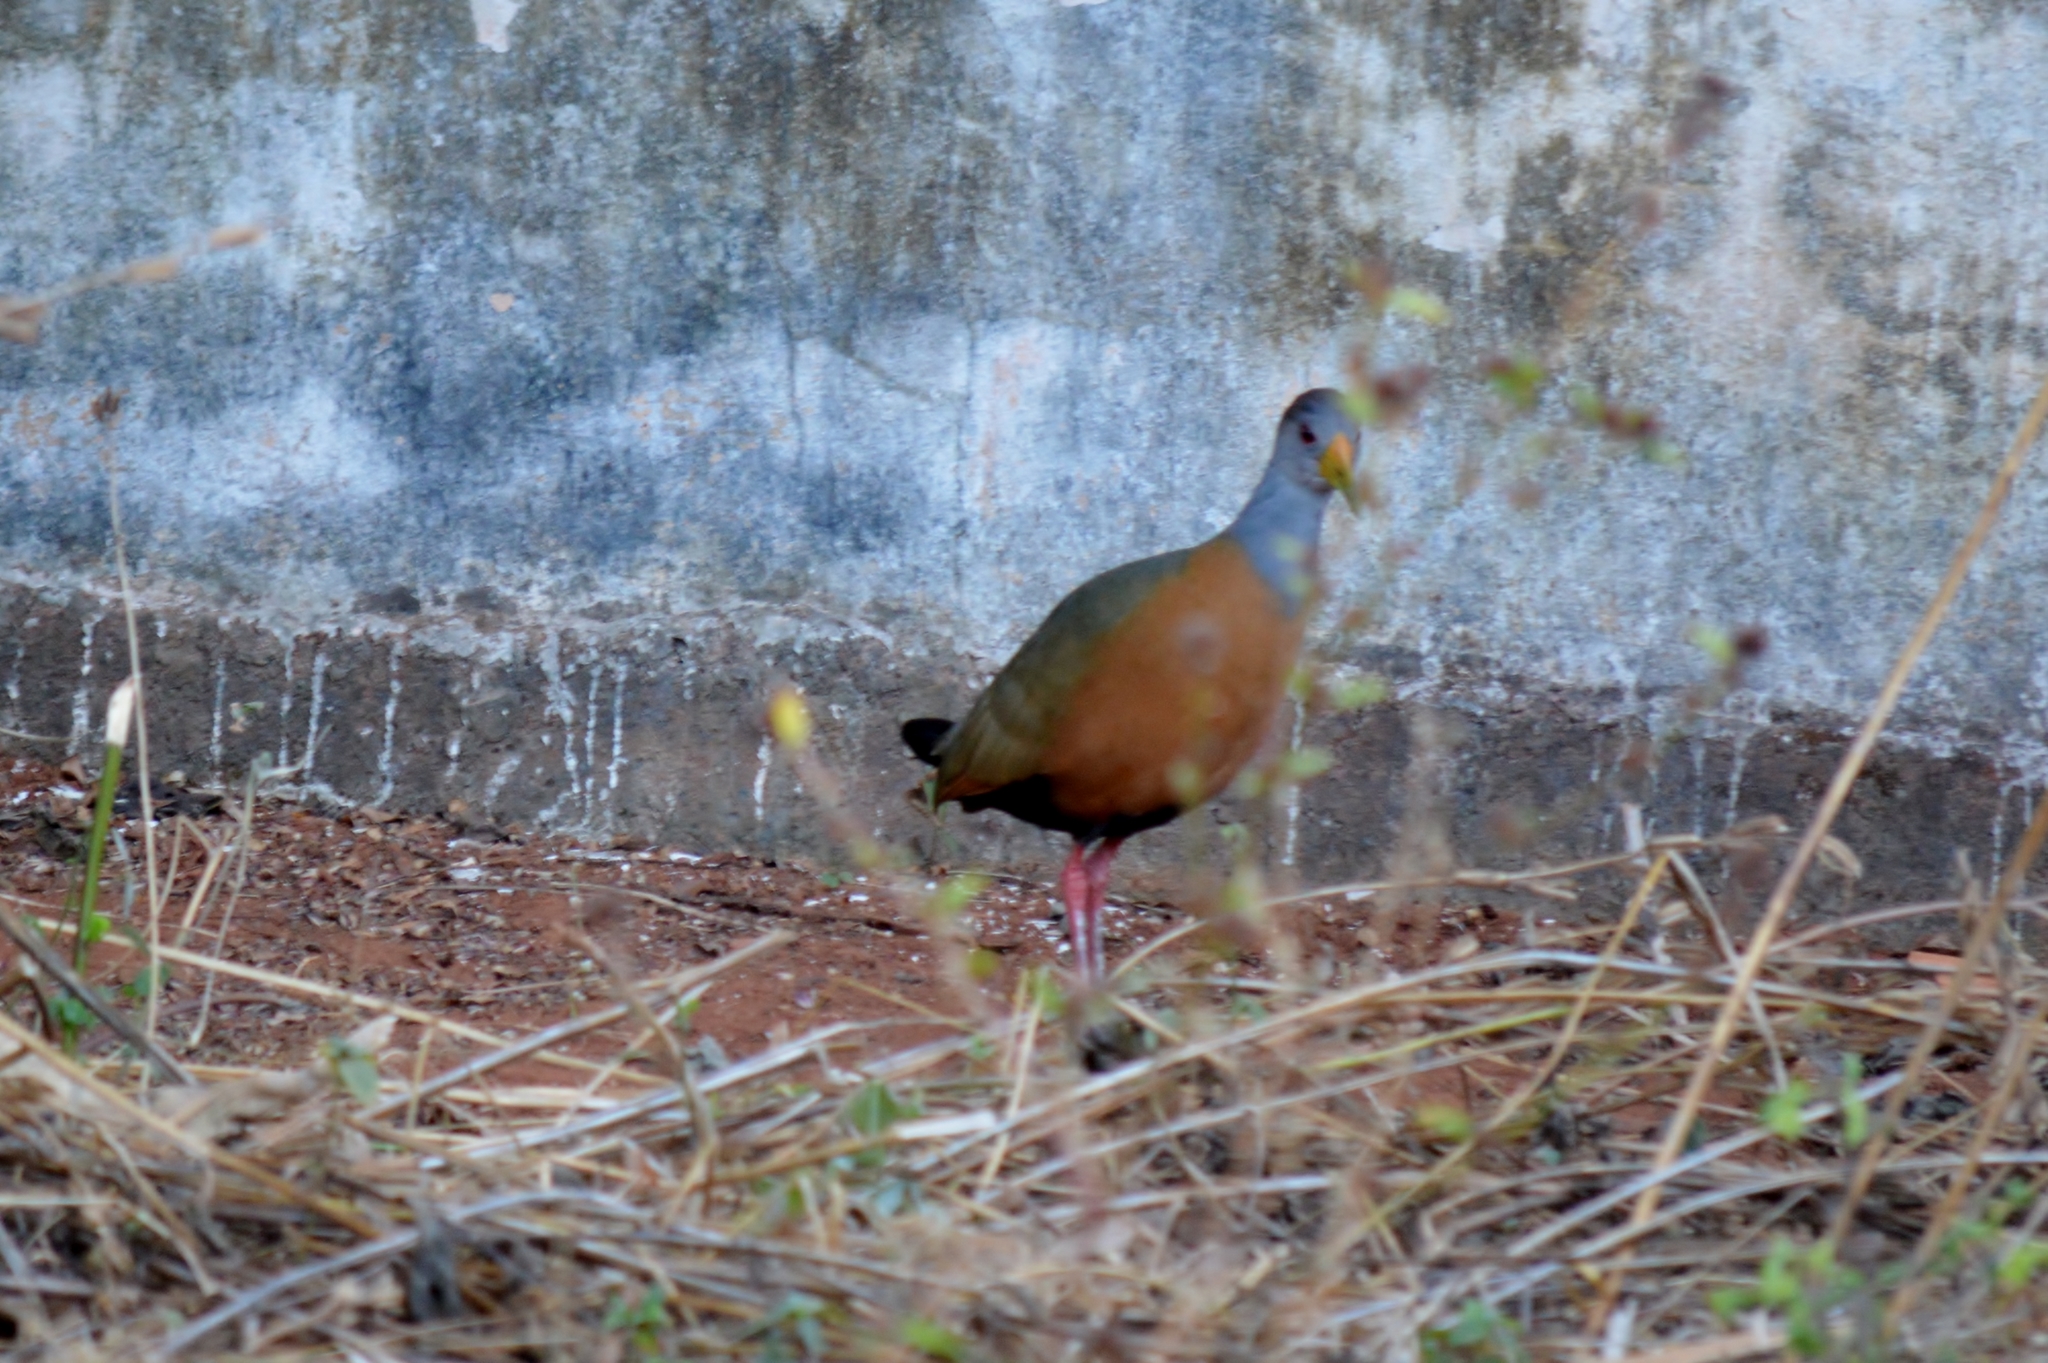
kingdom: Animalia
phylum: Chordata
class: Aves
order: Gruiformes
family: Rallidae
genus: Aramides
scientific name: Aramides cajanea
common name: Gray-necked wood-rail
